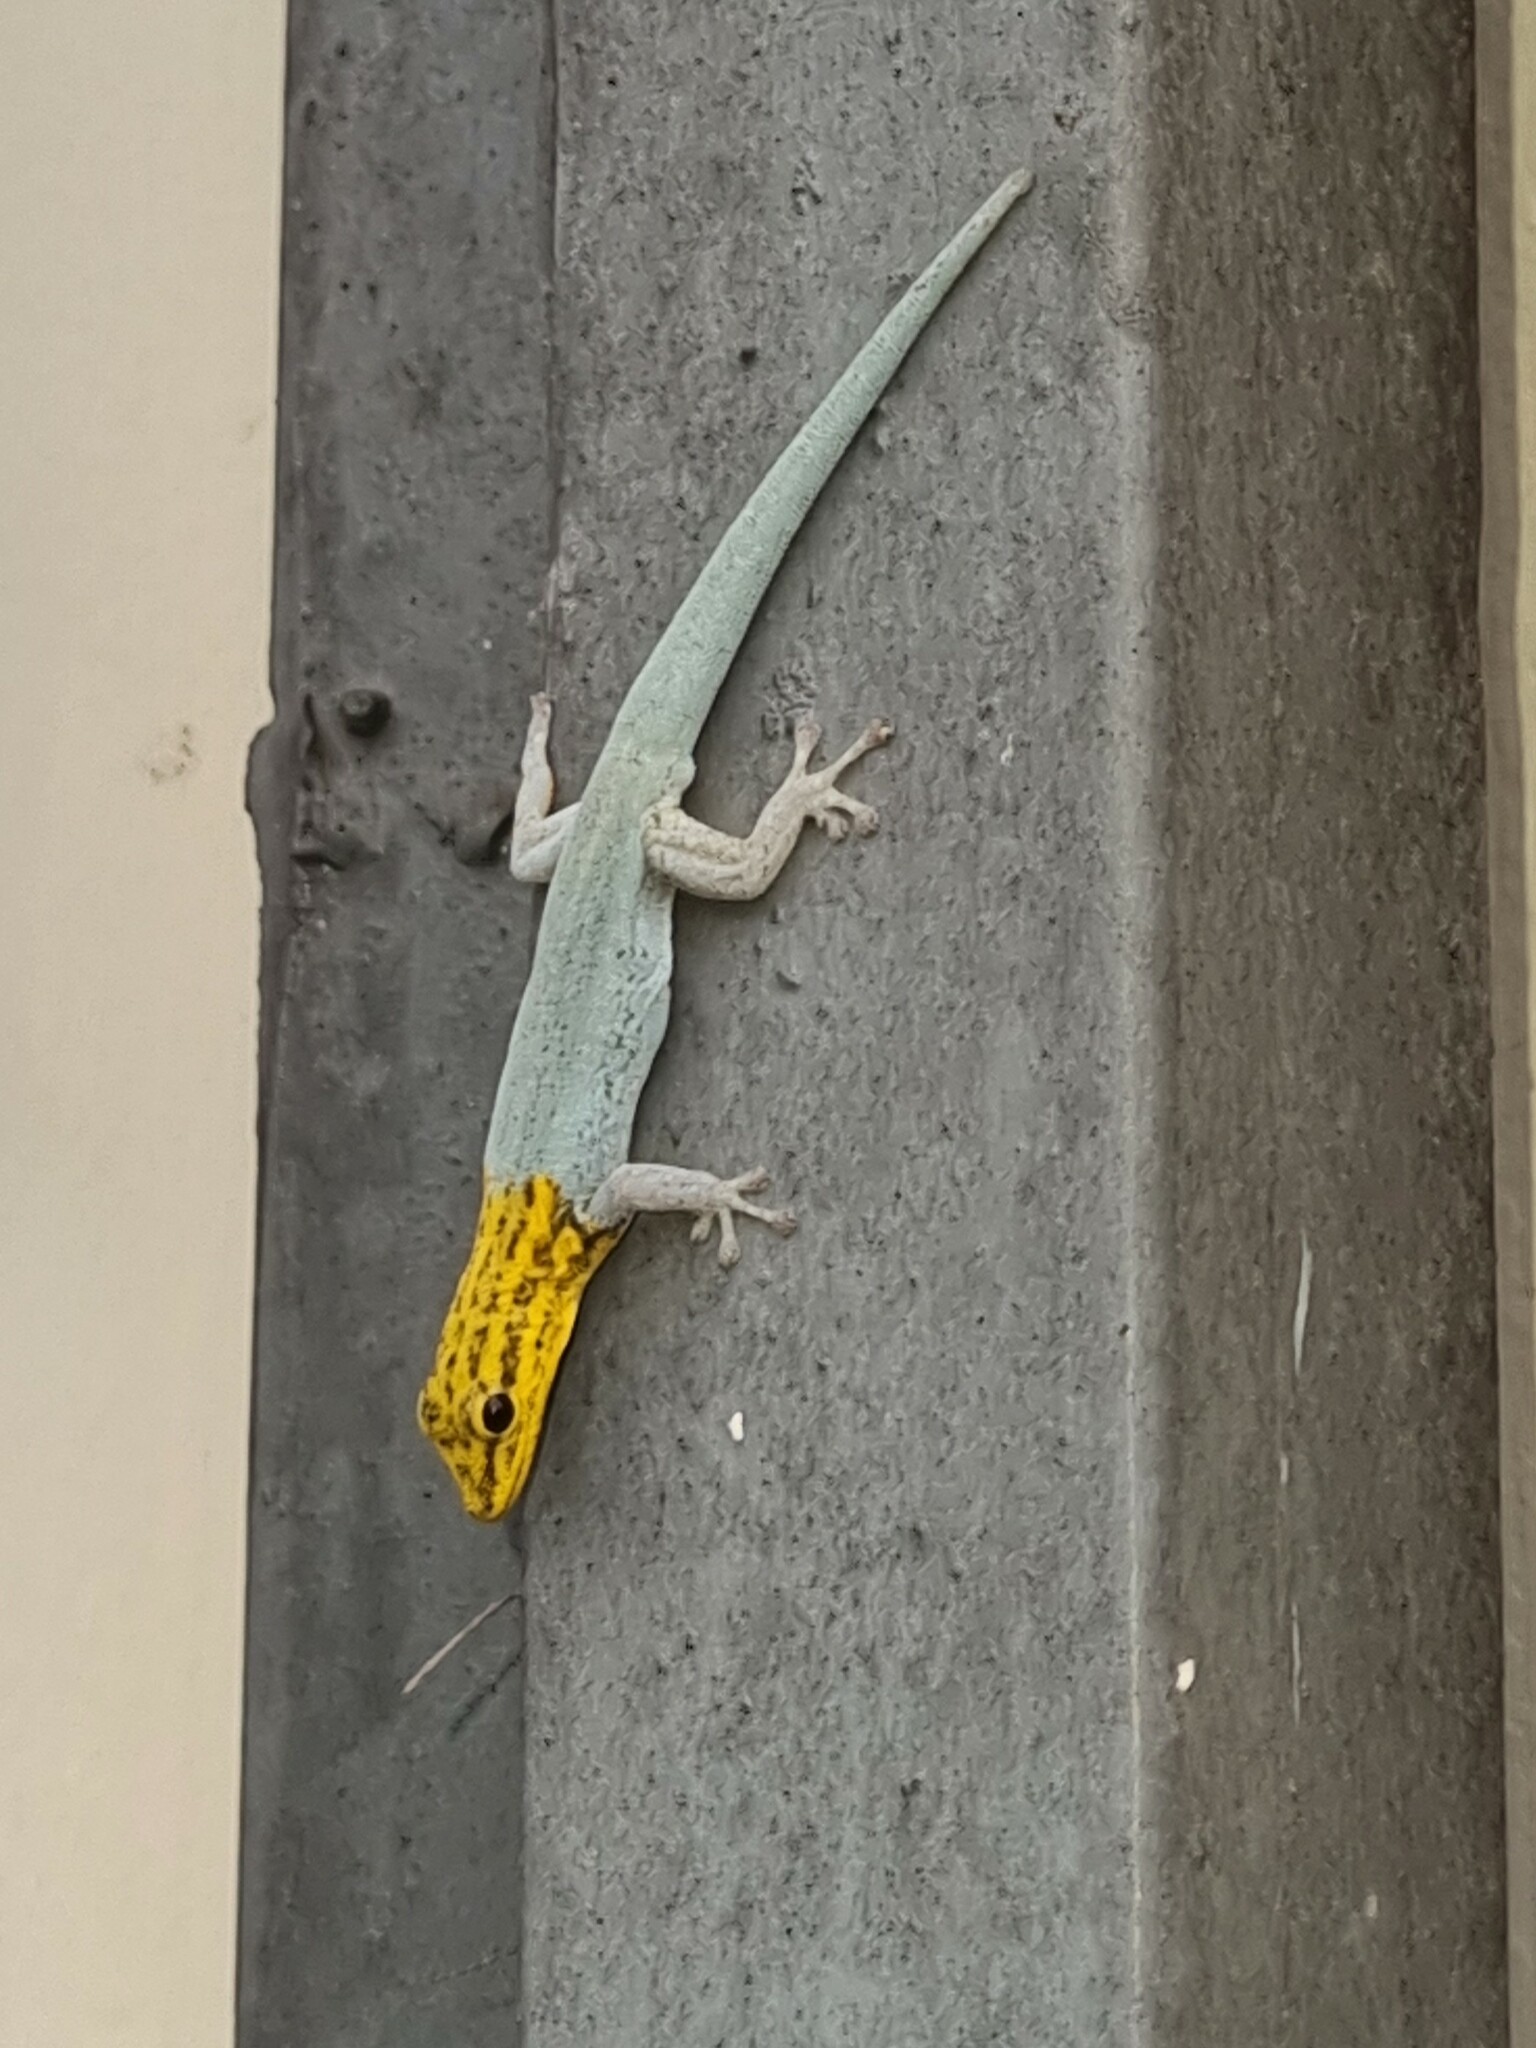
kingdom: Animalia
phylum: Chordata
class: Squamata
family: Gekkonidae
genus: Lygodactylus
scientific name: Lygodactylus picturatus
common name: Painted dwarf gecko
